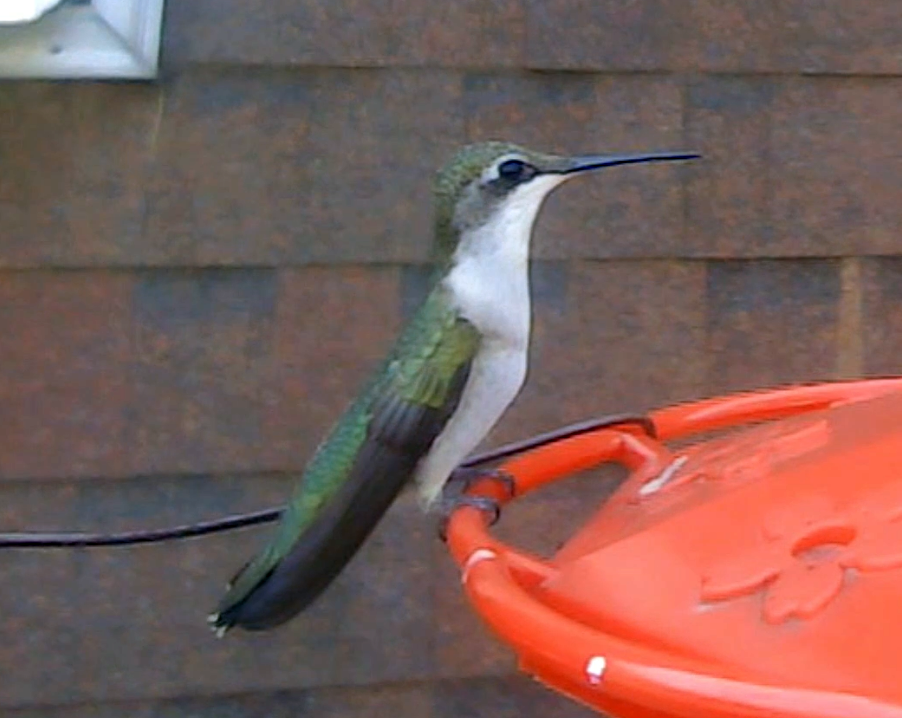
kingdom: Animalia
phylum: Chordata
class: Aves
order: Apodiformes
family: Trochilidae
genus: Archilochus
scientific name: Archilochus colubris
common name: Ruby-throated hummingbird
